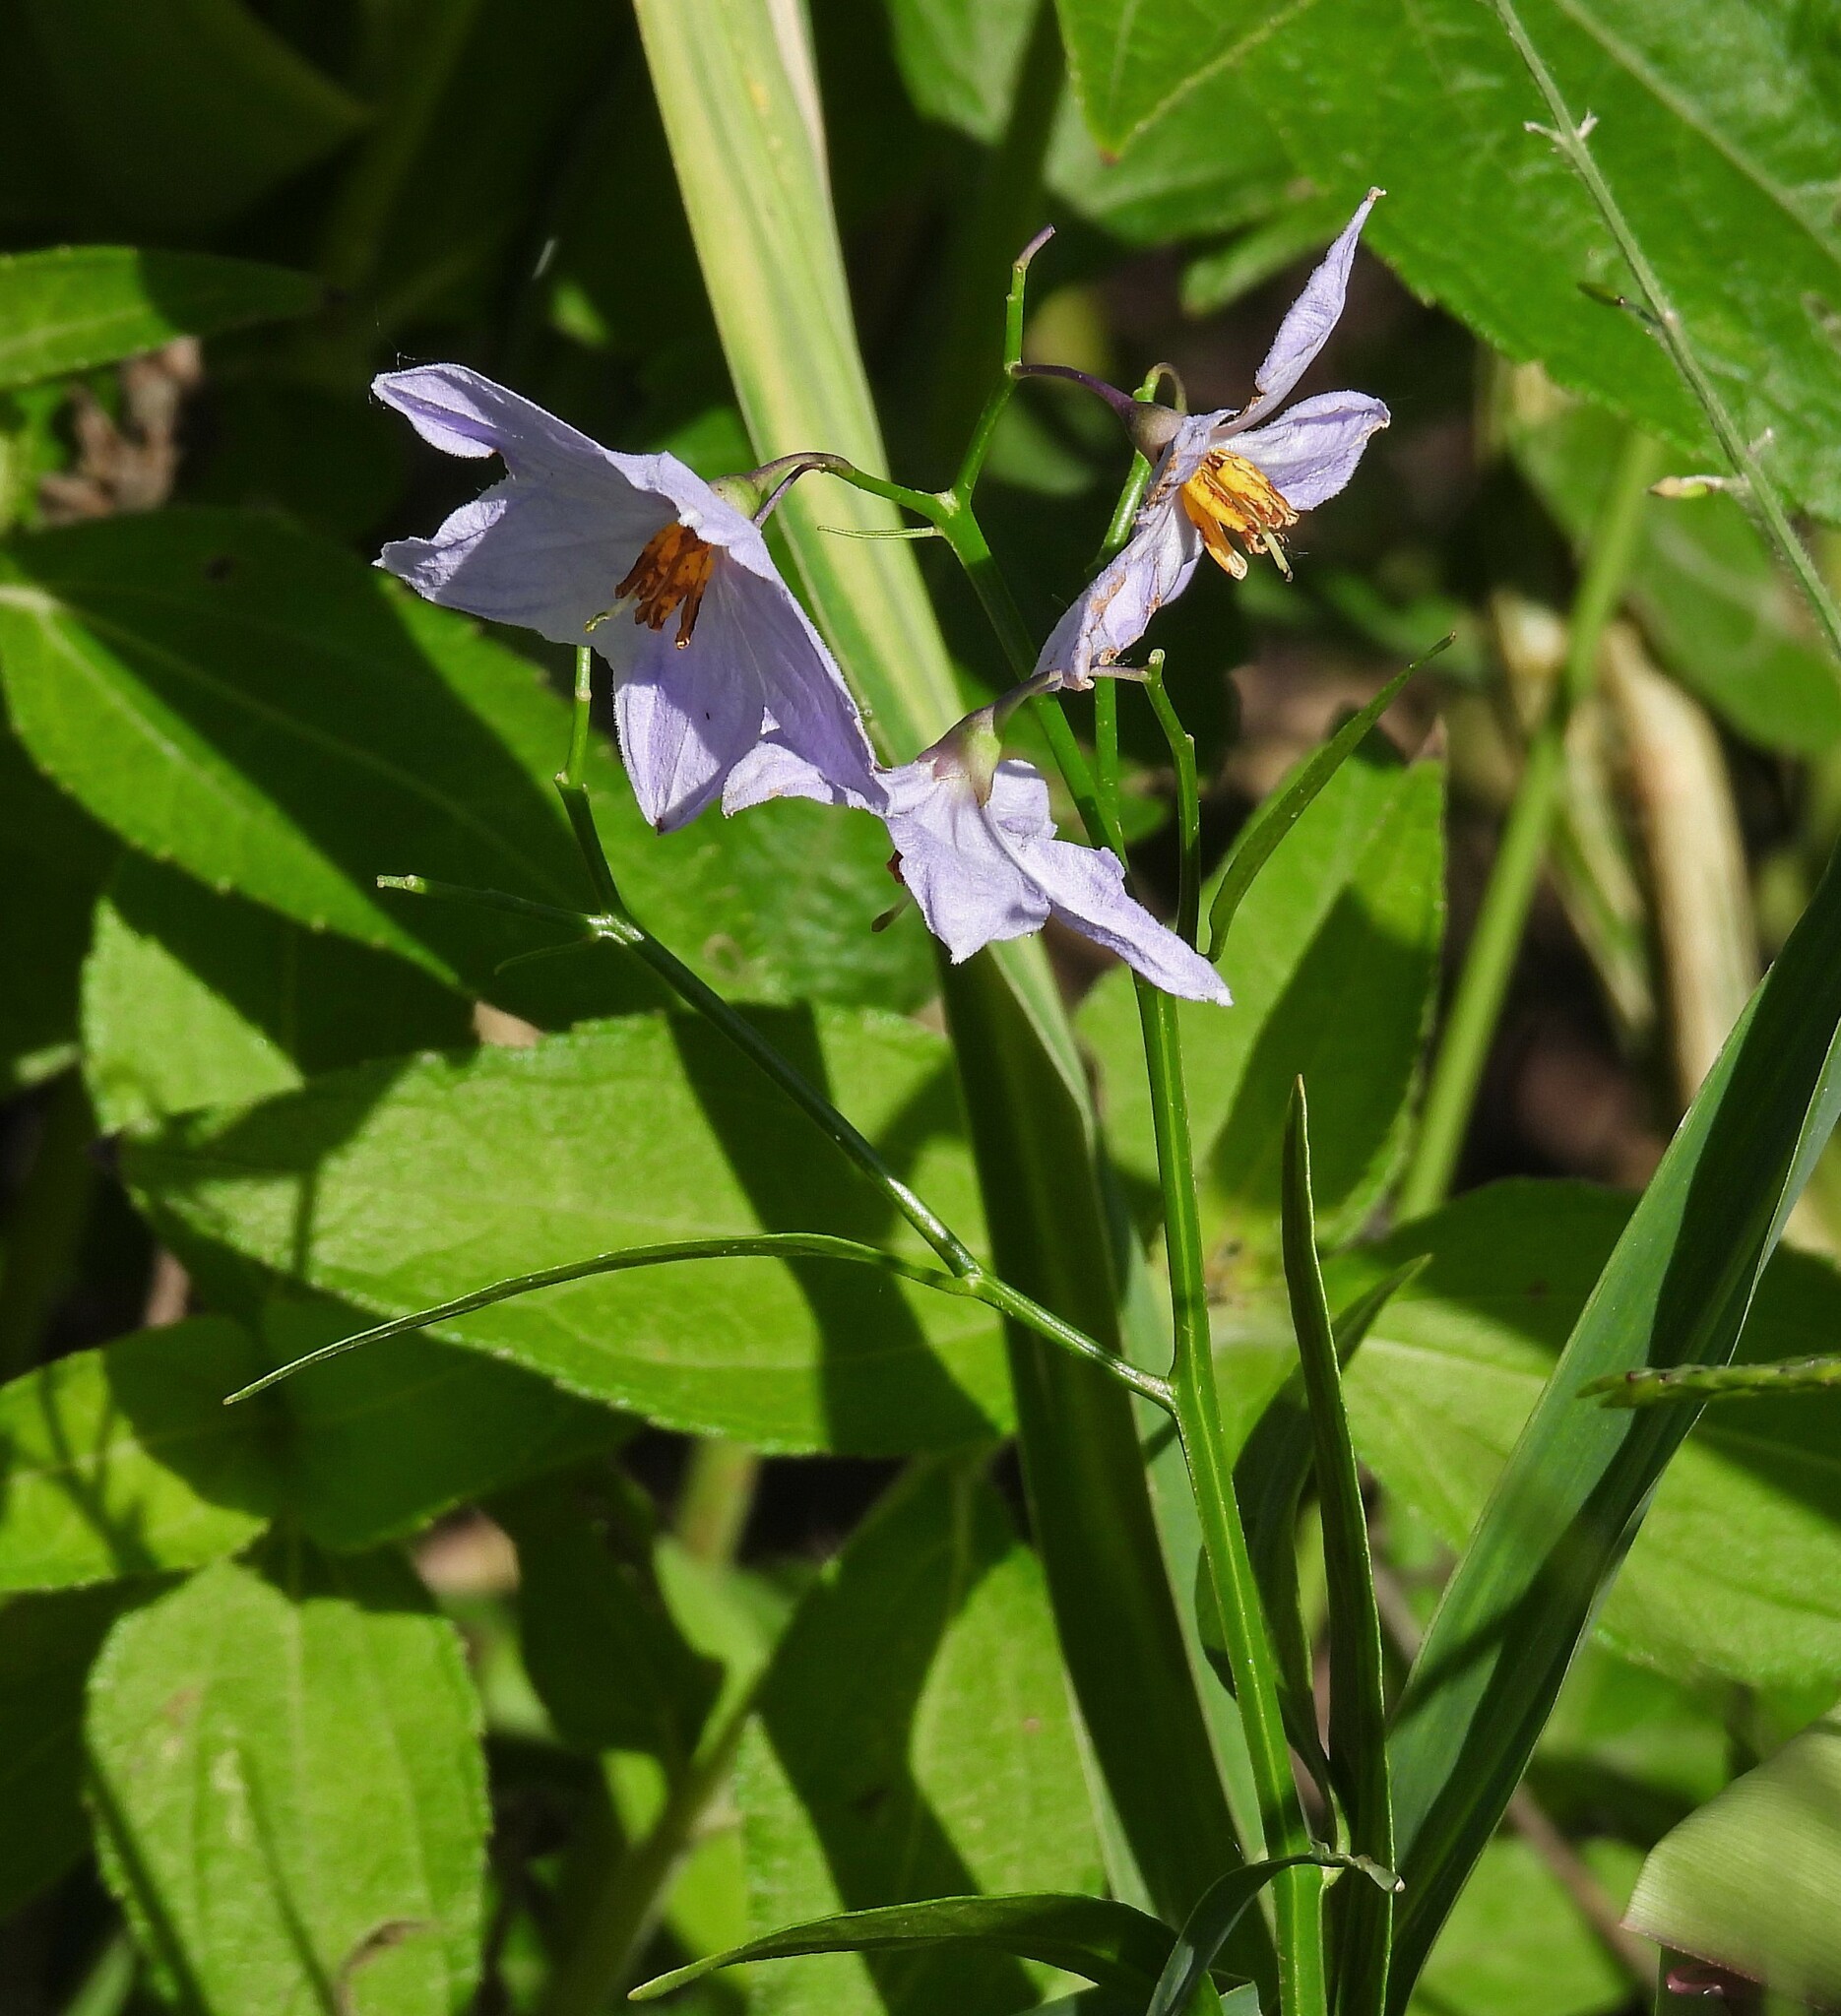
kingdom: Plantae
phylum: Tracheophyta
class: Magnoliopsida
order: Solanales
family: Solanaceae
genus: Solanum
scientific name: Solanum amygdalifolium
